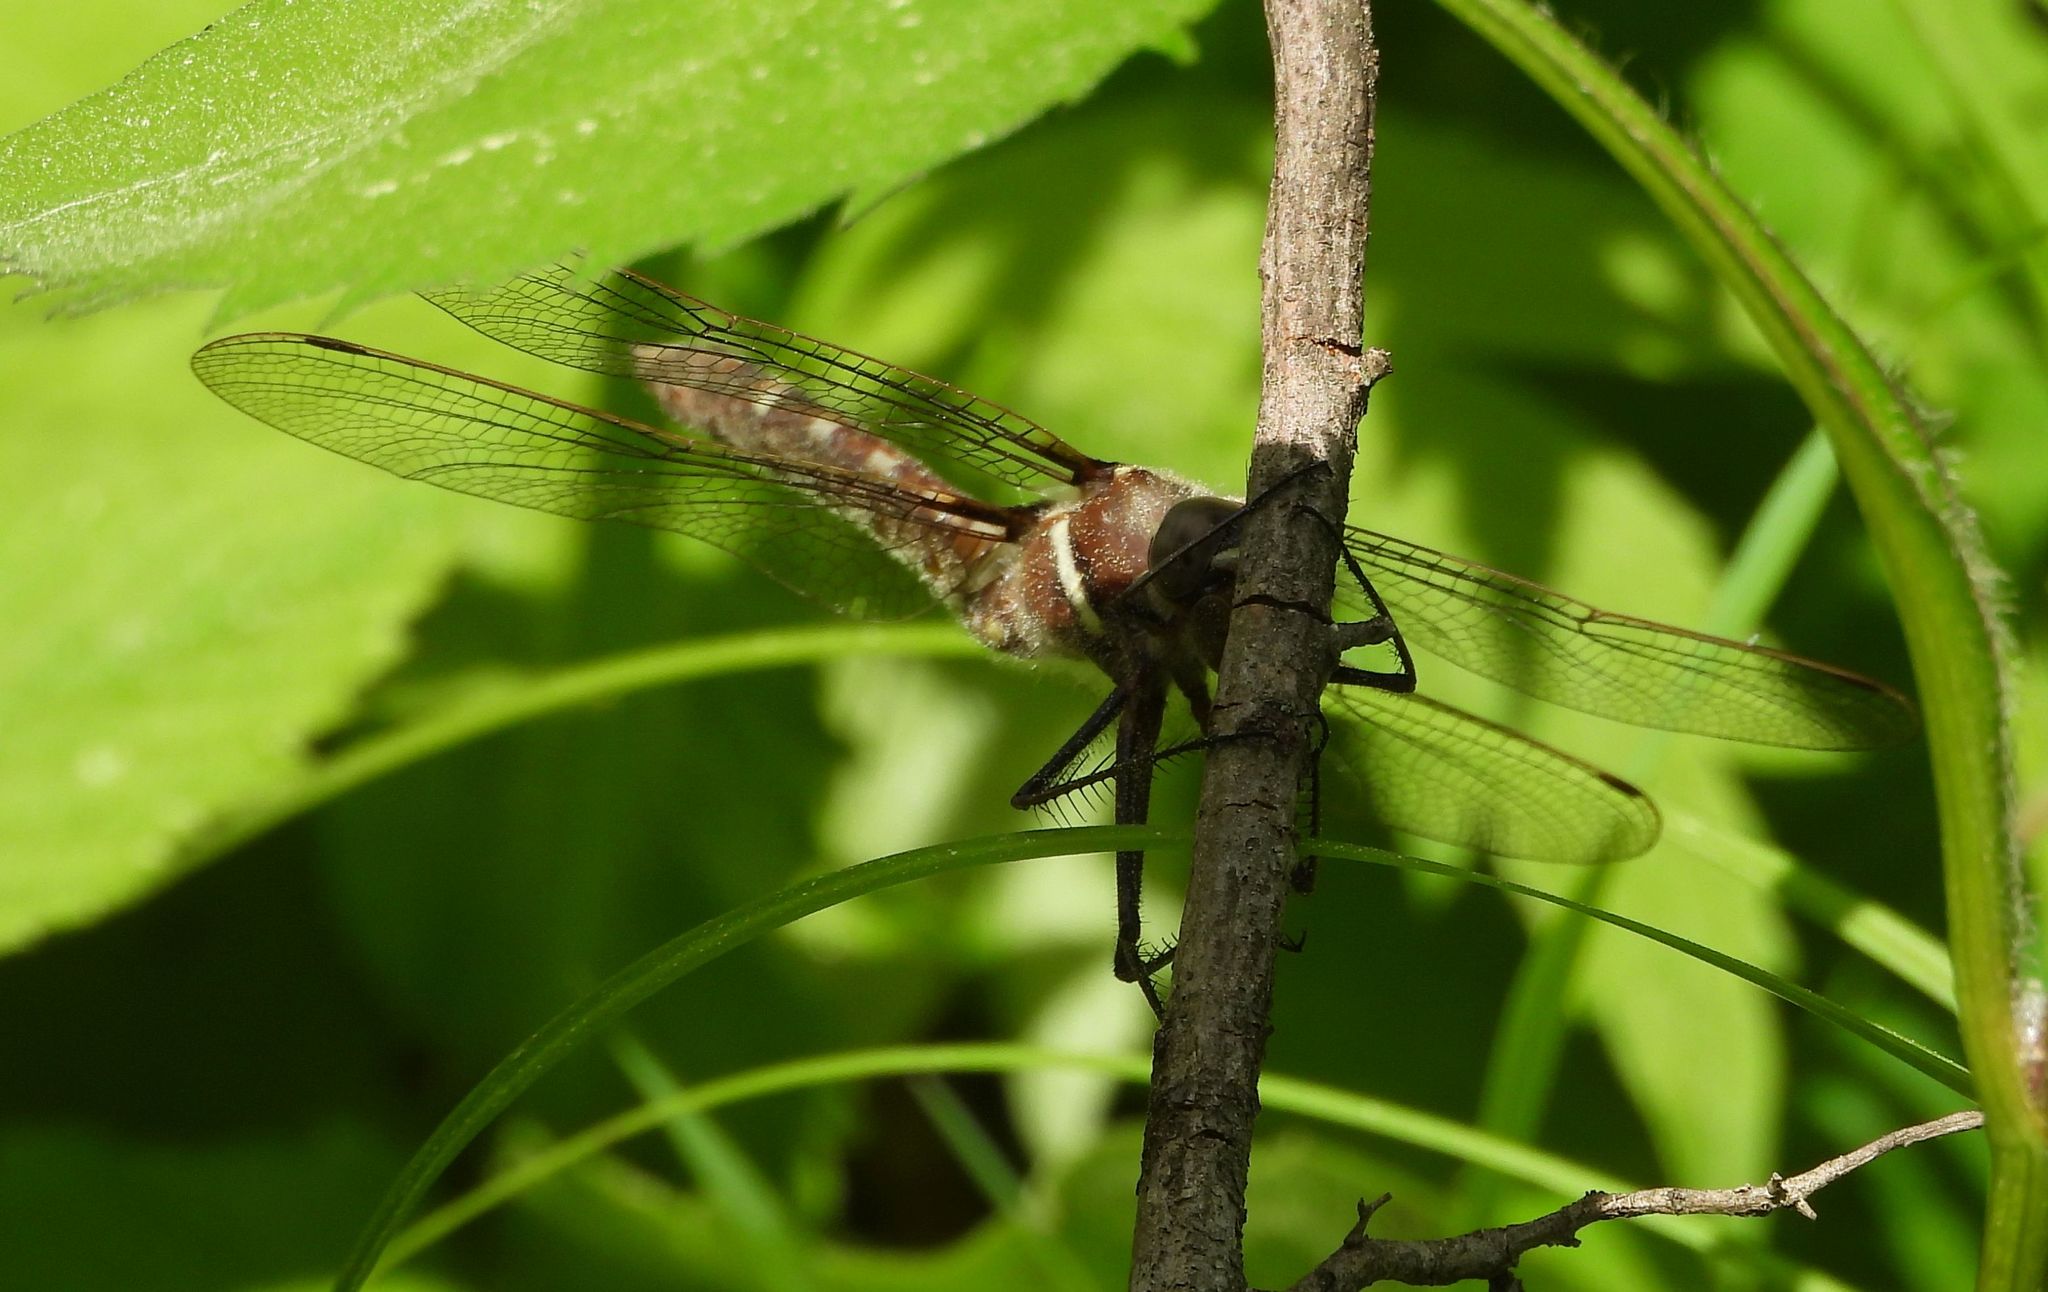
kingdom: Animalia
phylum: Arthropoda
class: Insecta
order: Odonata
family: Macromiidae
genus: Didymops
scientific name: Didymops transversa
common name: Stream cruiser
